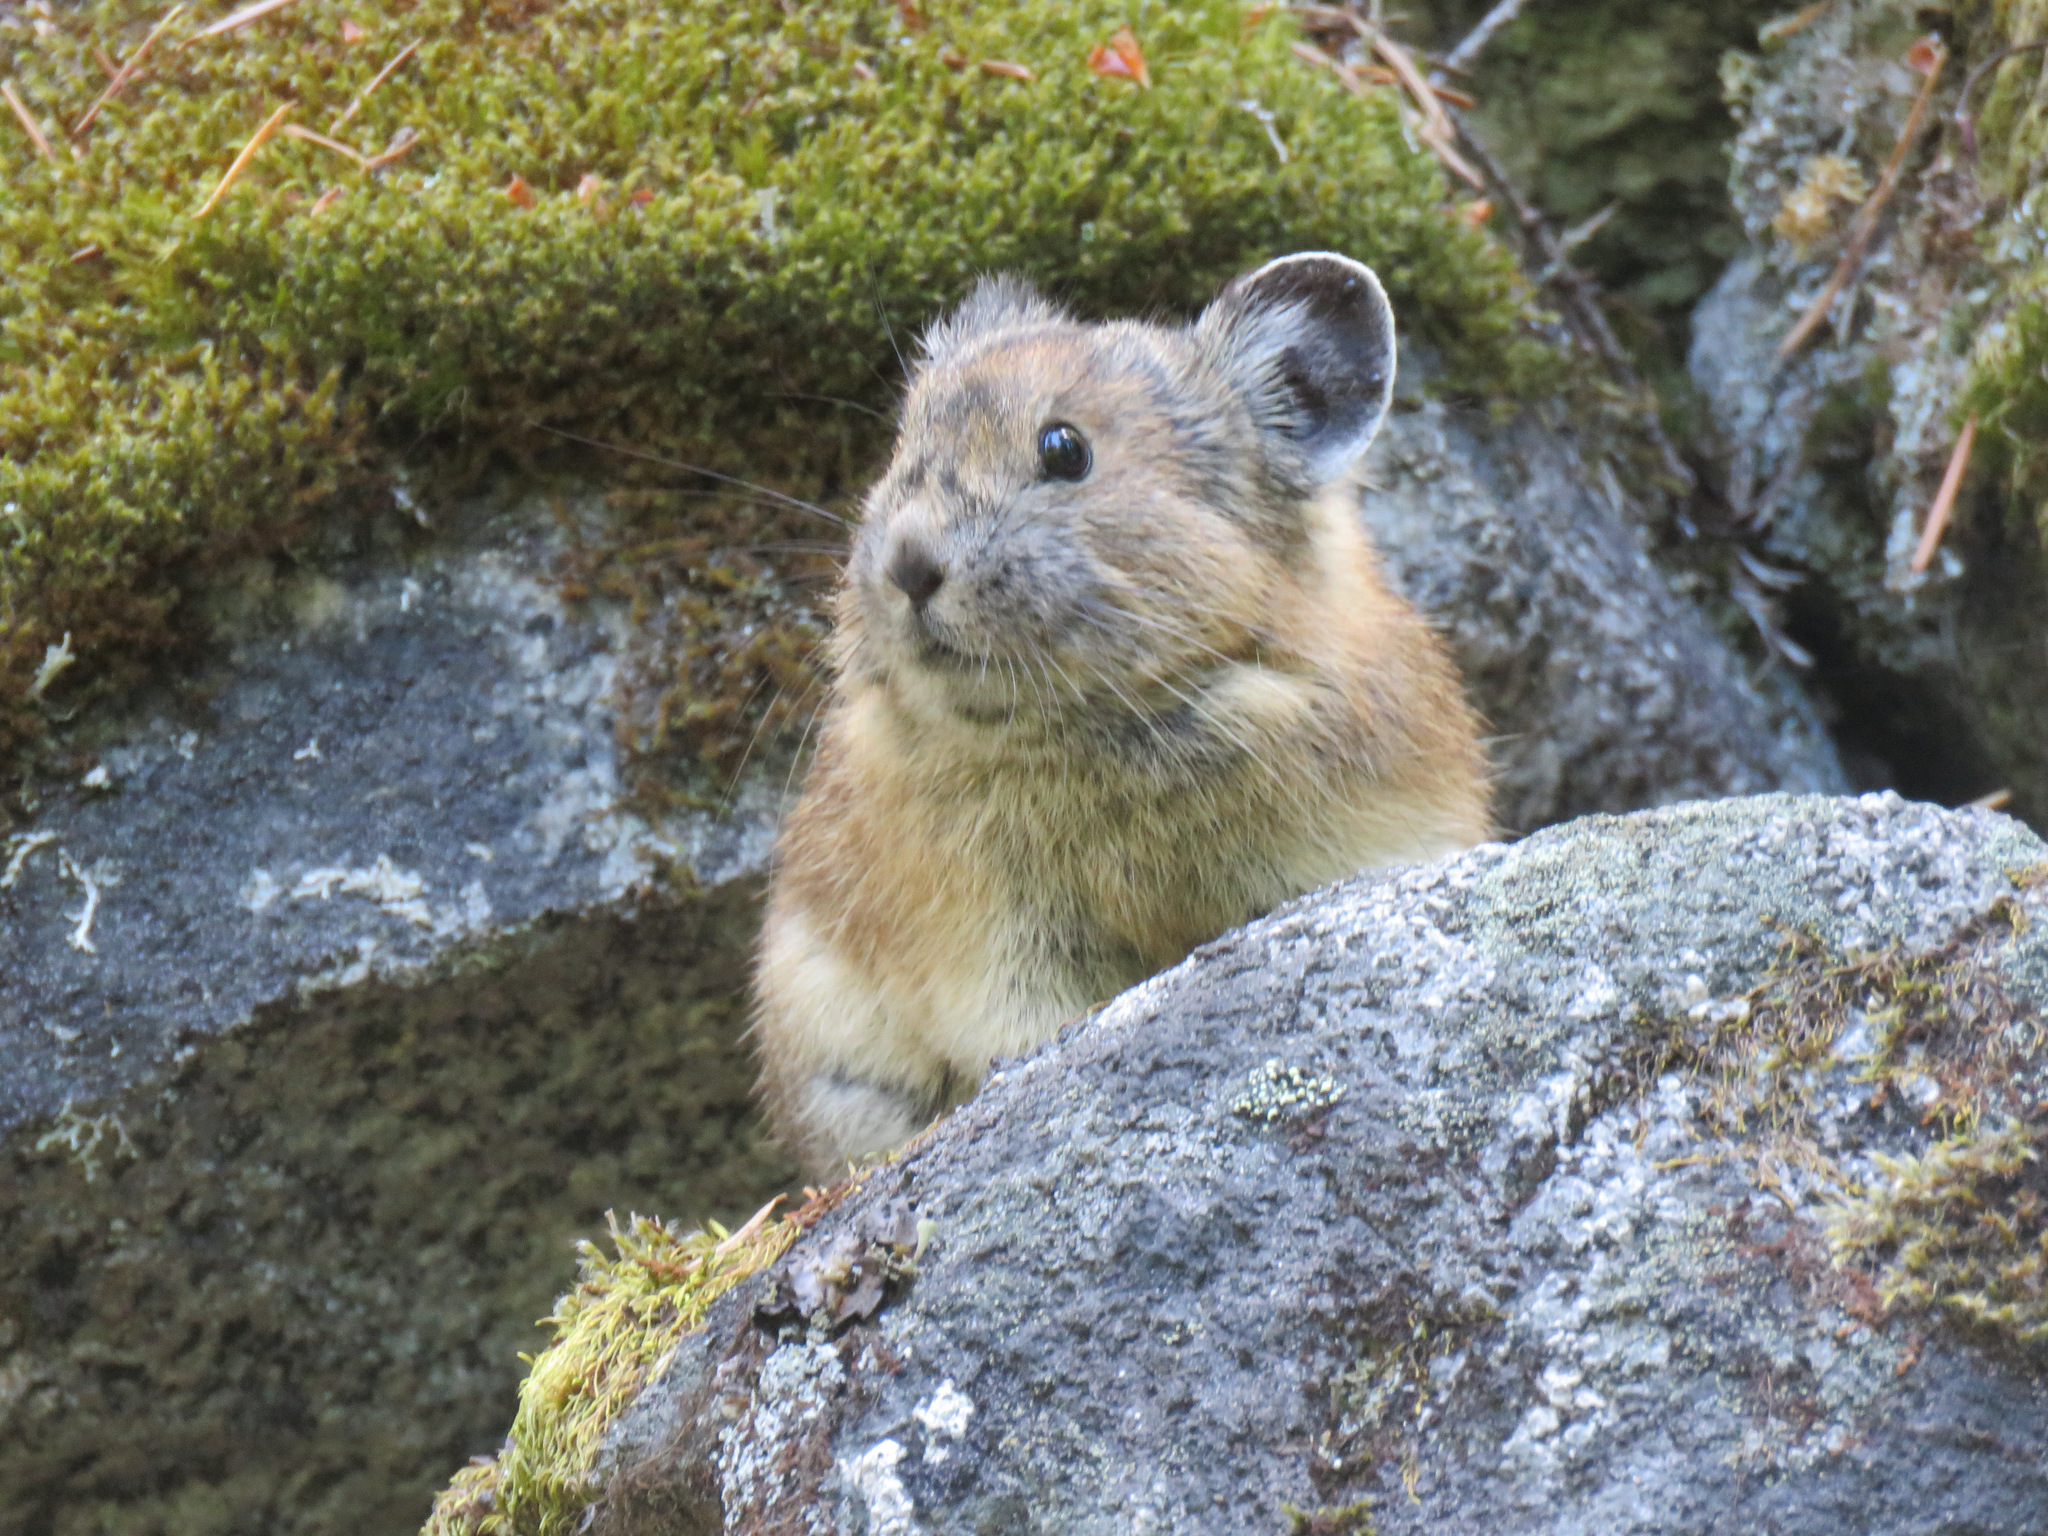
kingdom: Animalia
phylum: Chordata
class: Mammalia
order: Lagomorpha
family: Ochotonidae
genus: Ochotona
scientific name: Ochotona princeps
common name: American pika
